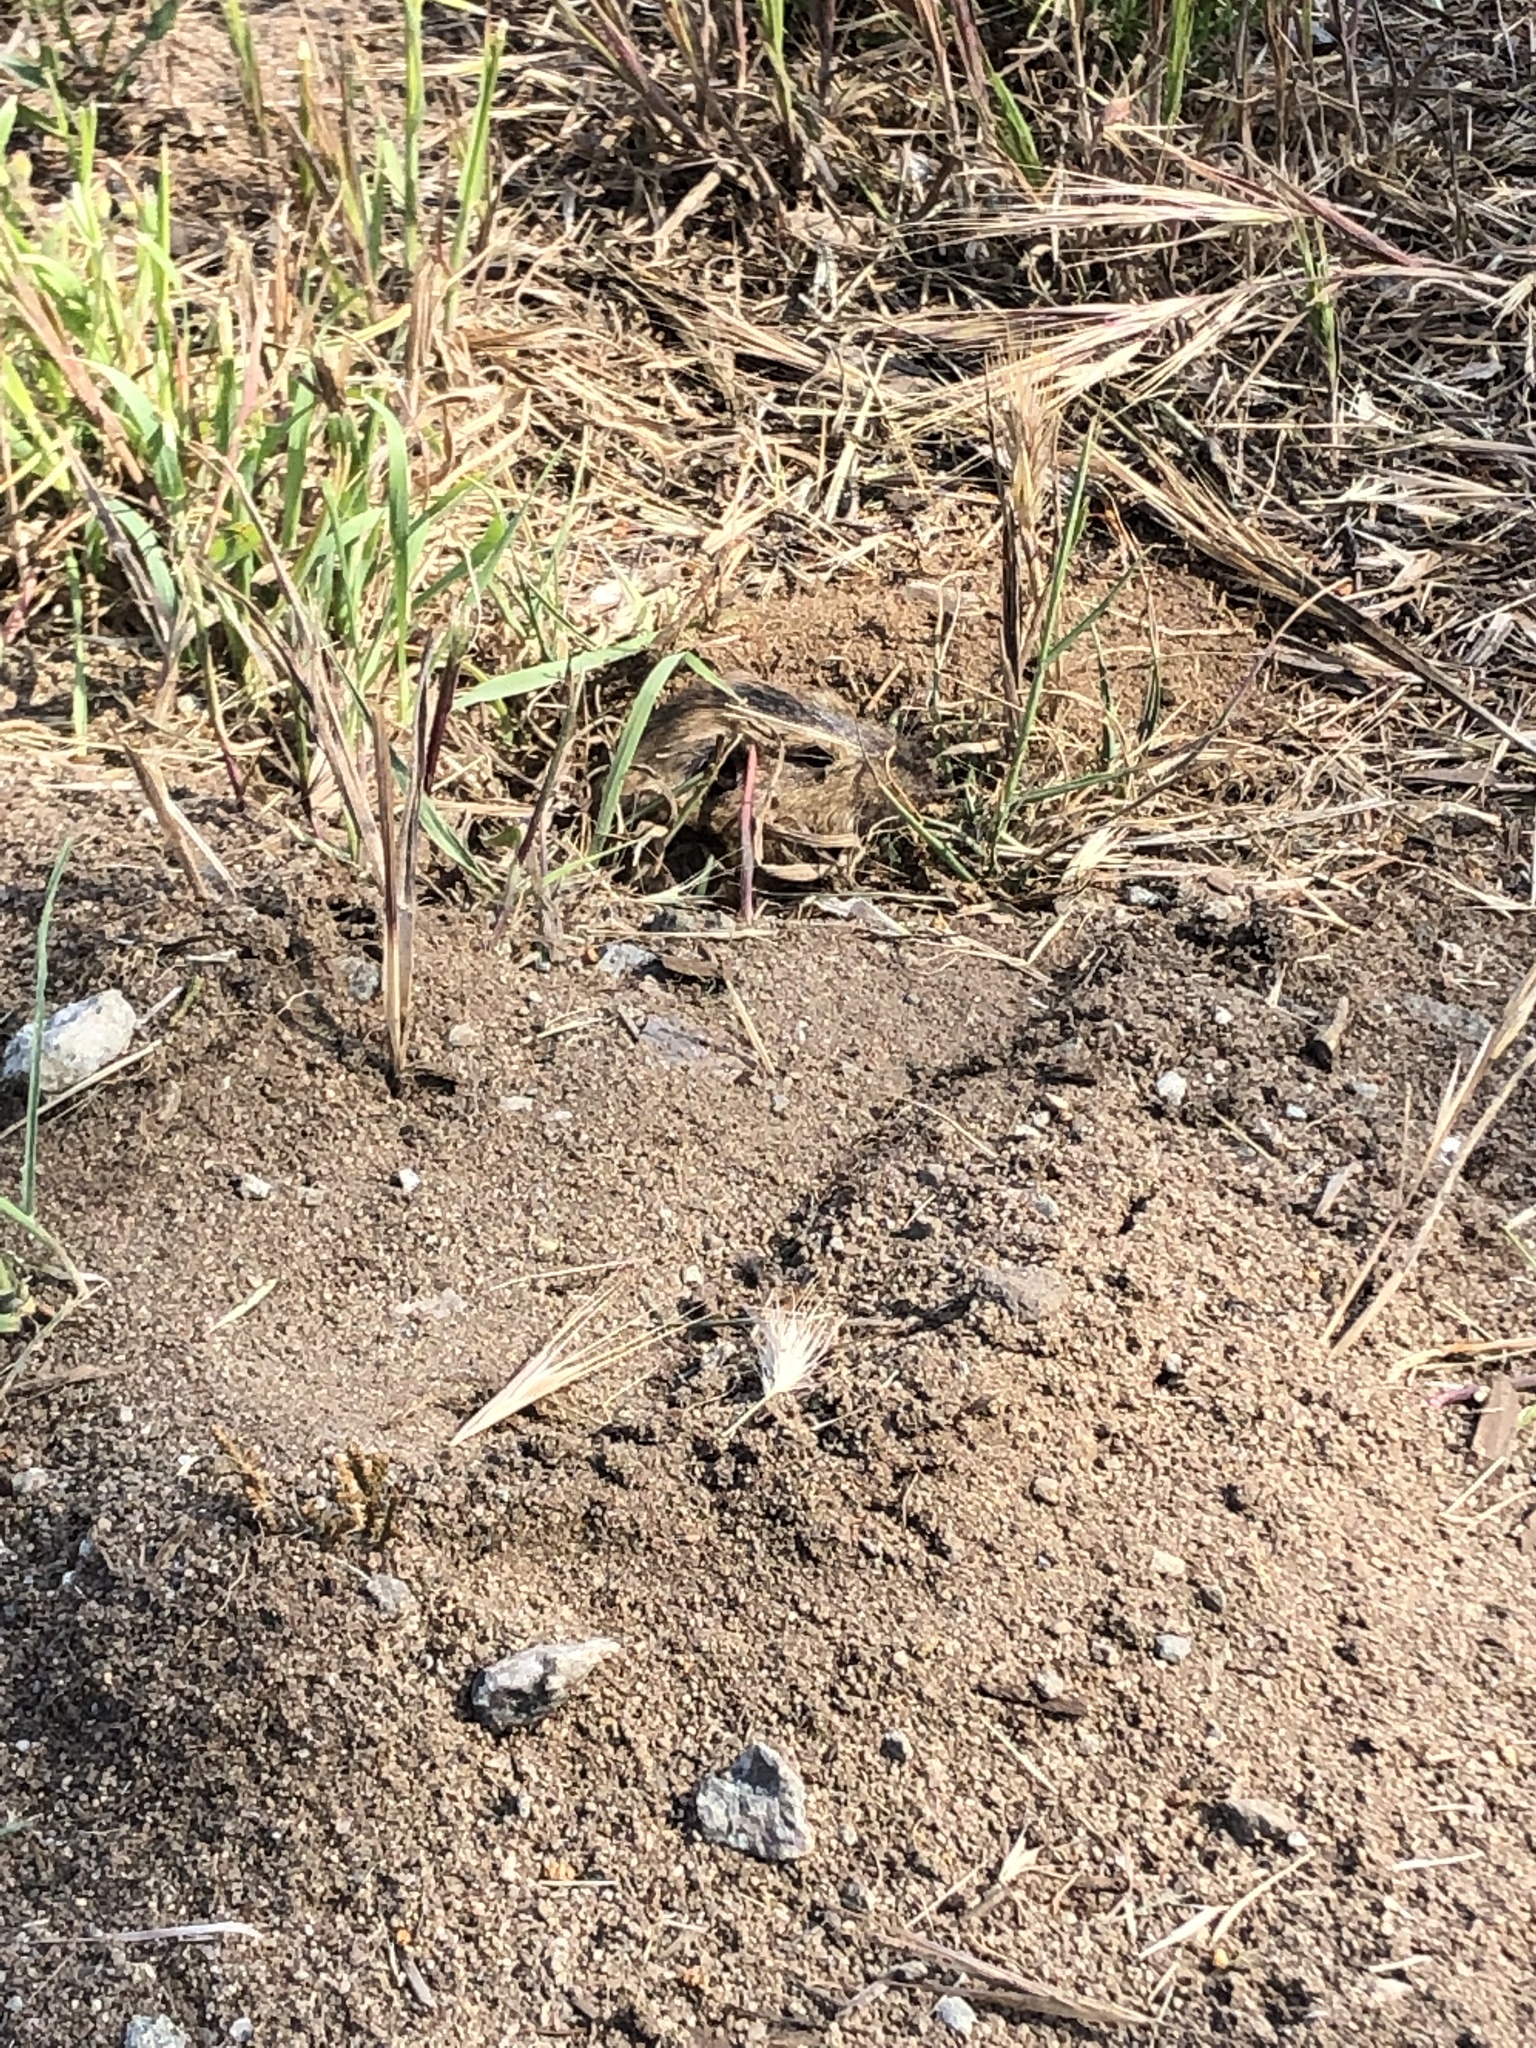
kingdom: Animalia
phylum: Chordata
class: Mammalia
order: Rodentia
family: Geomyidae
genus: Thomomys
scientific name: Thomomys bottae
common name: Botta's pocket gopher
